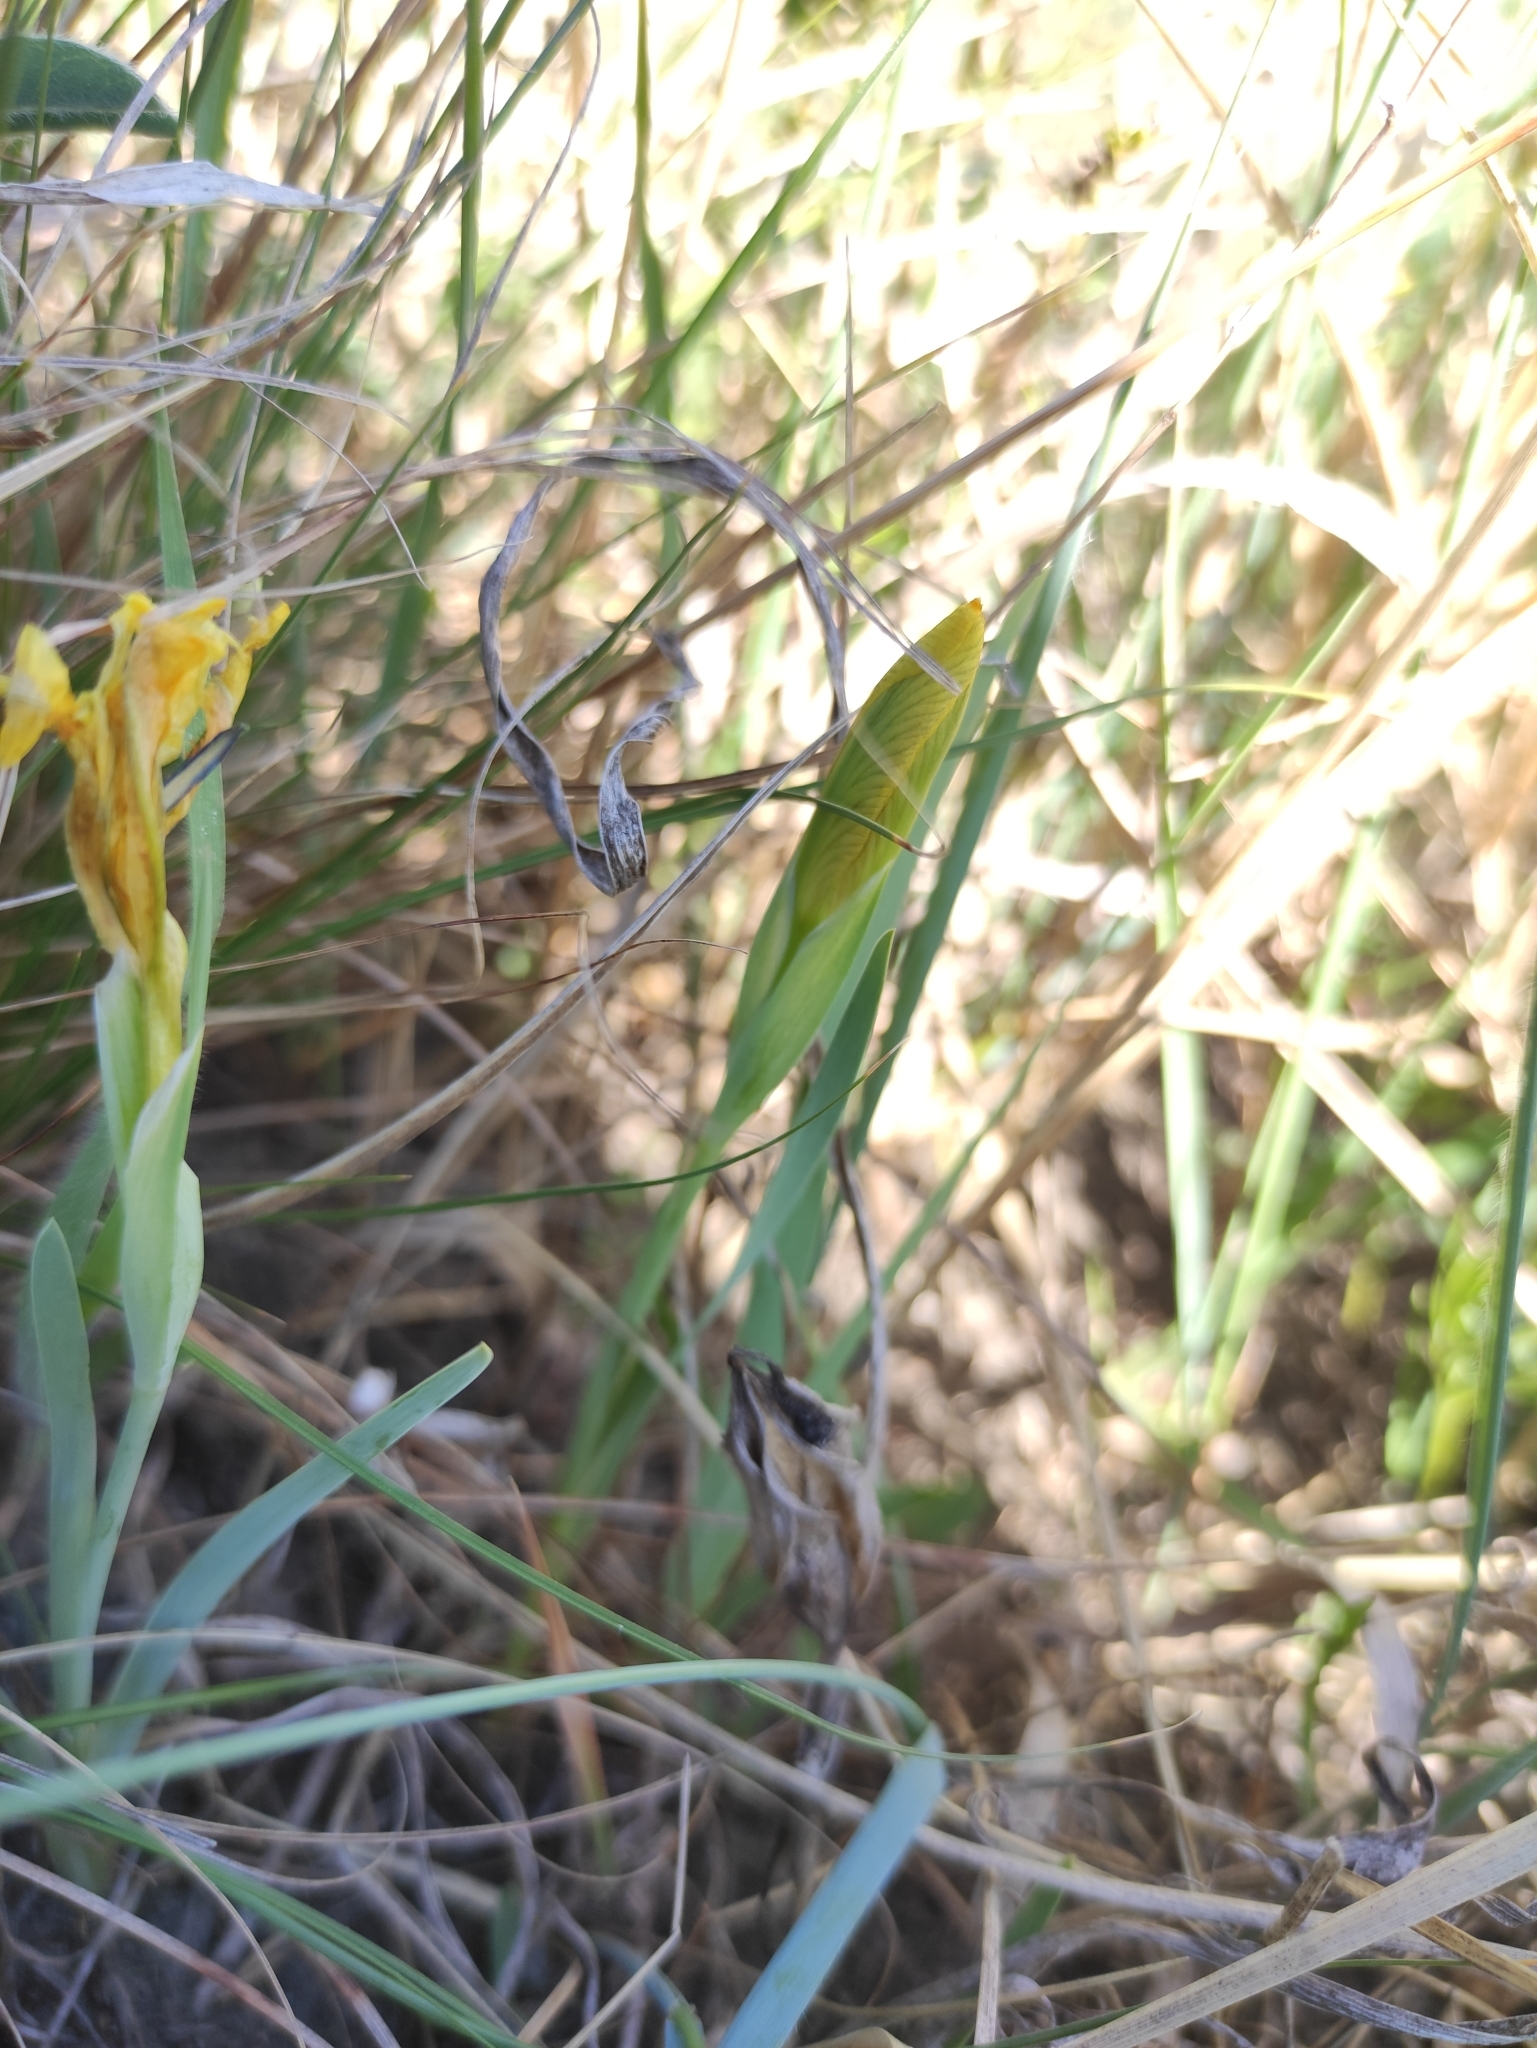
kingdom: Plantae
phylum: Tracheophyta
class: Liliopsida
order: Asparagales
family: Iridaceae
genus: Iris
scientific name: Iris humilis
